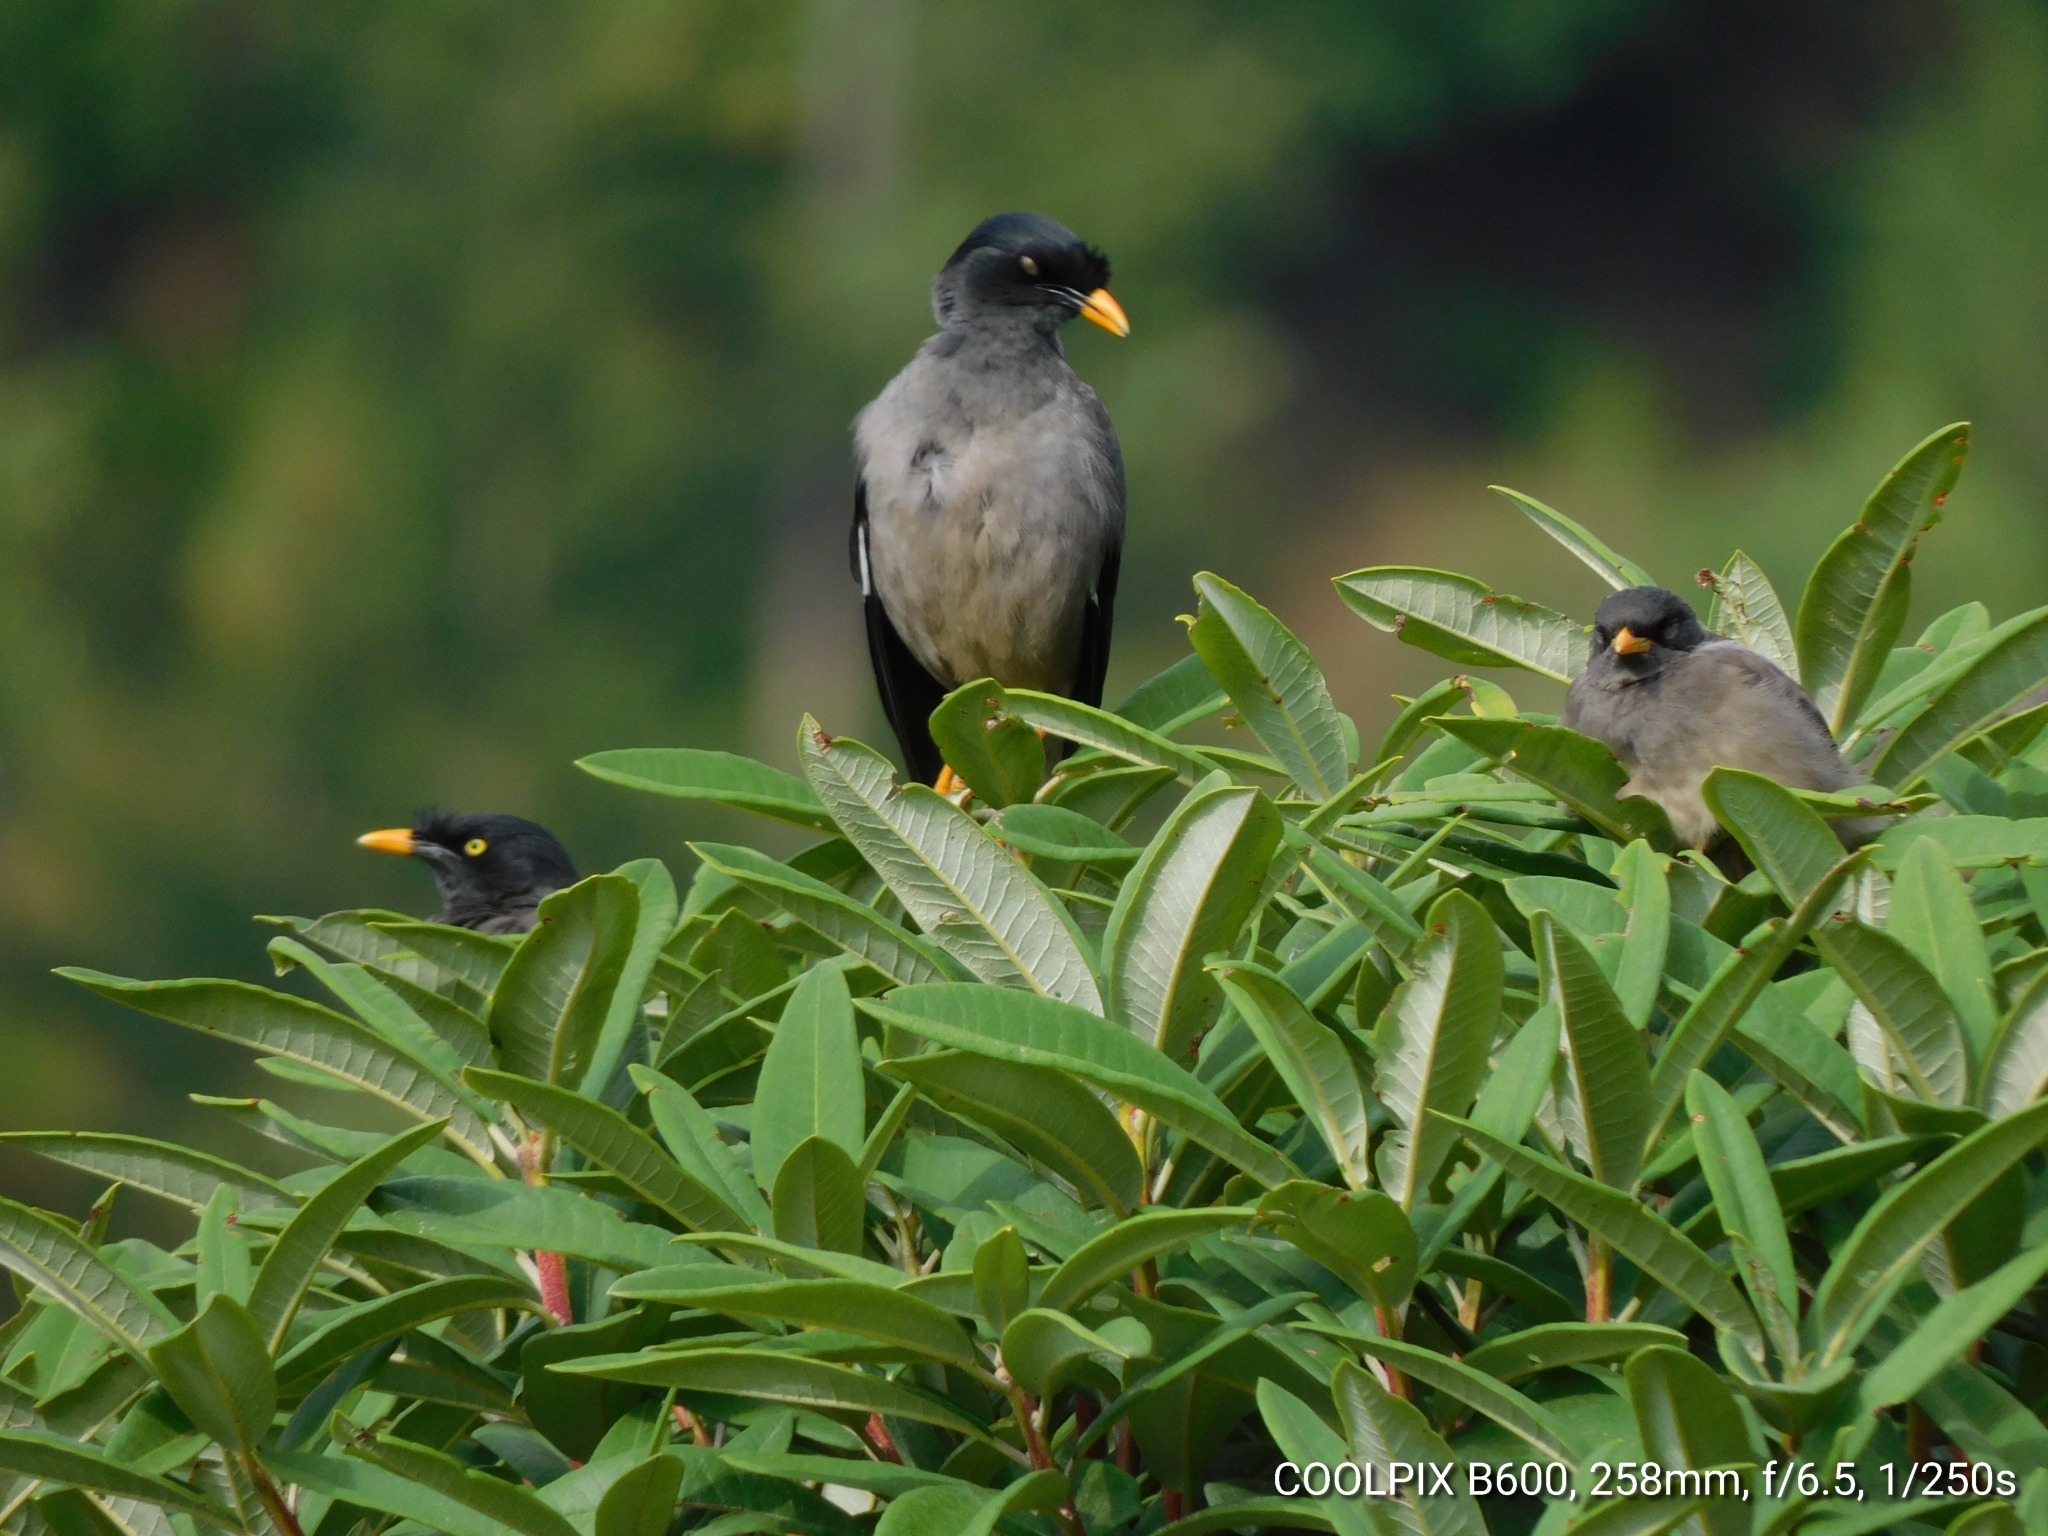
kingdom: Animalia
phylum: Chordata
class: Aves
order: Passeriformes
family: Sturnidae
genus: Acridotheres
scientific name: Acridotheres fuscus
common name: Jungle myna
